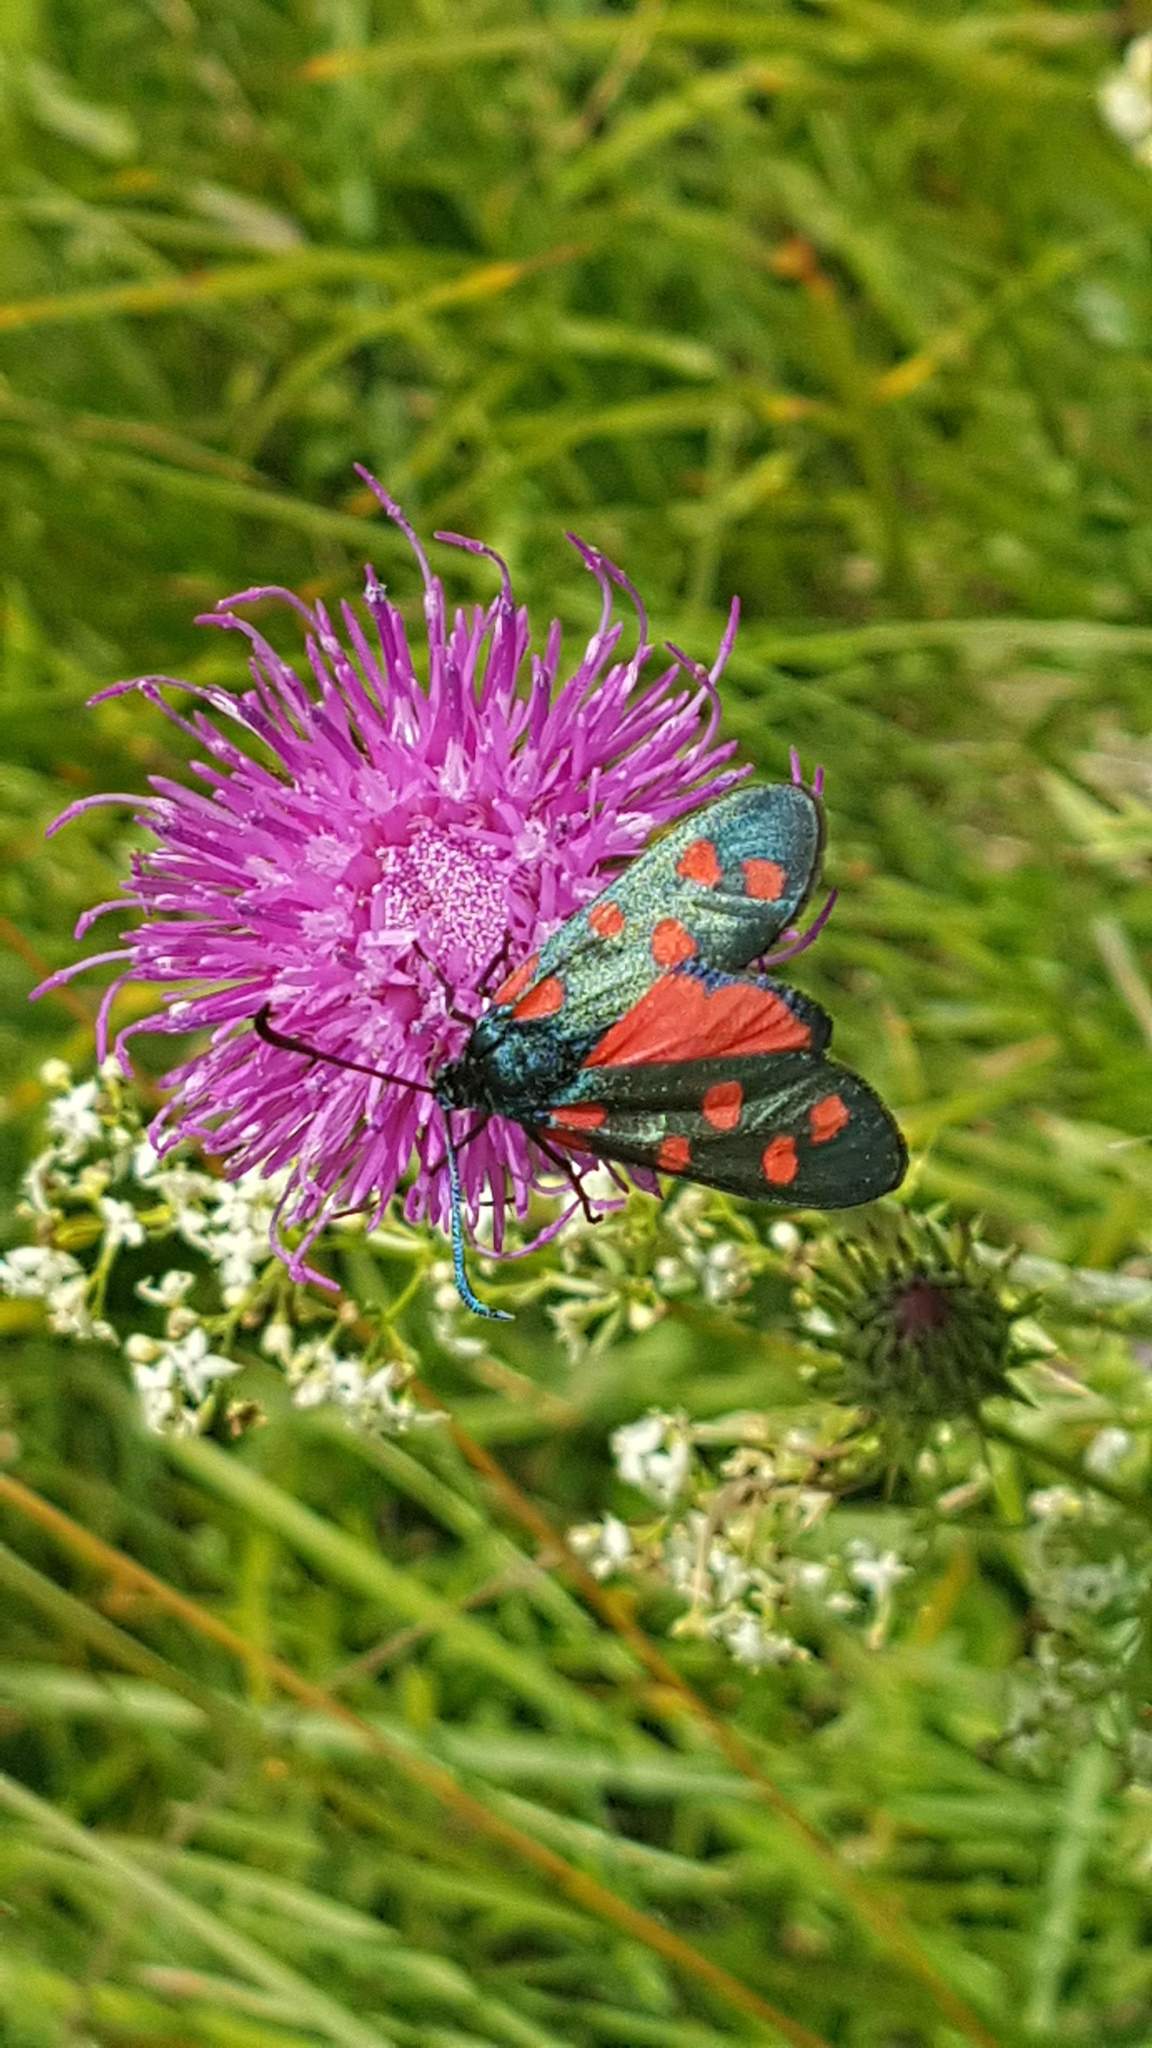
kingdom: Animalia
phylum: Arthropoda
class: Insecta
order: Lepidoptera
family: Zygaenidae
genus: Zygaena
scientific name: Zygaena transalpina
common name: Southern six spot burnet
